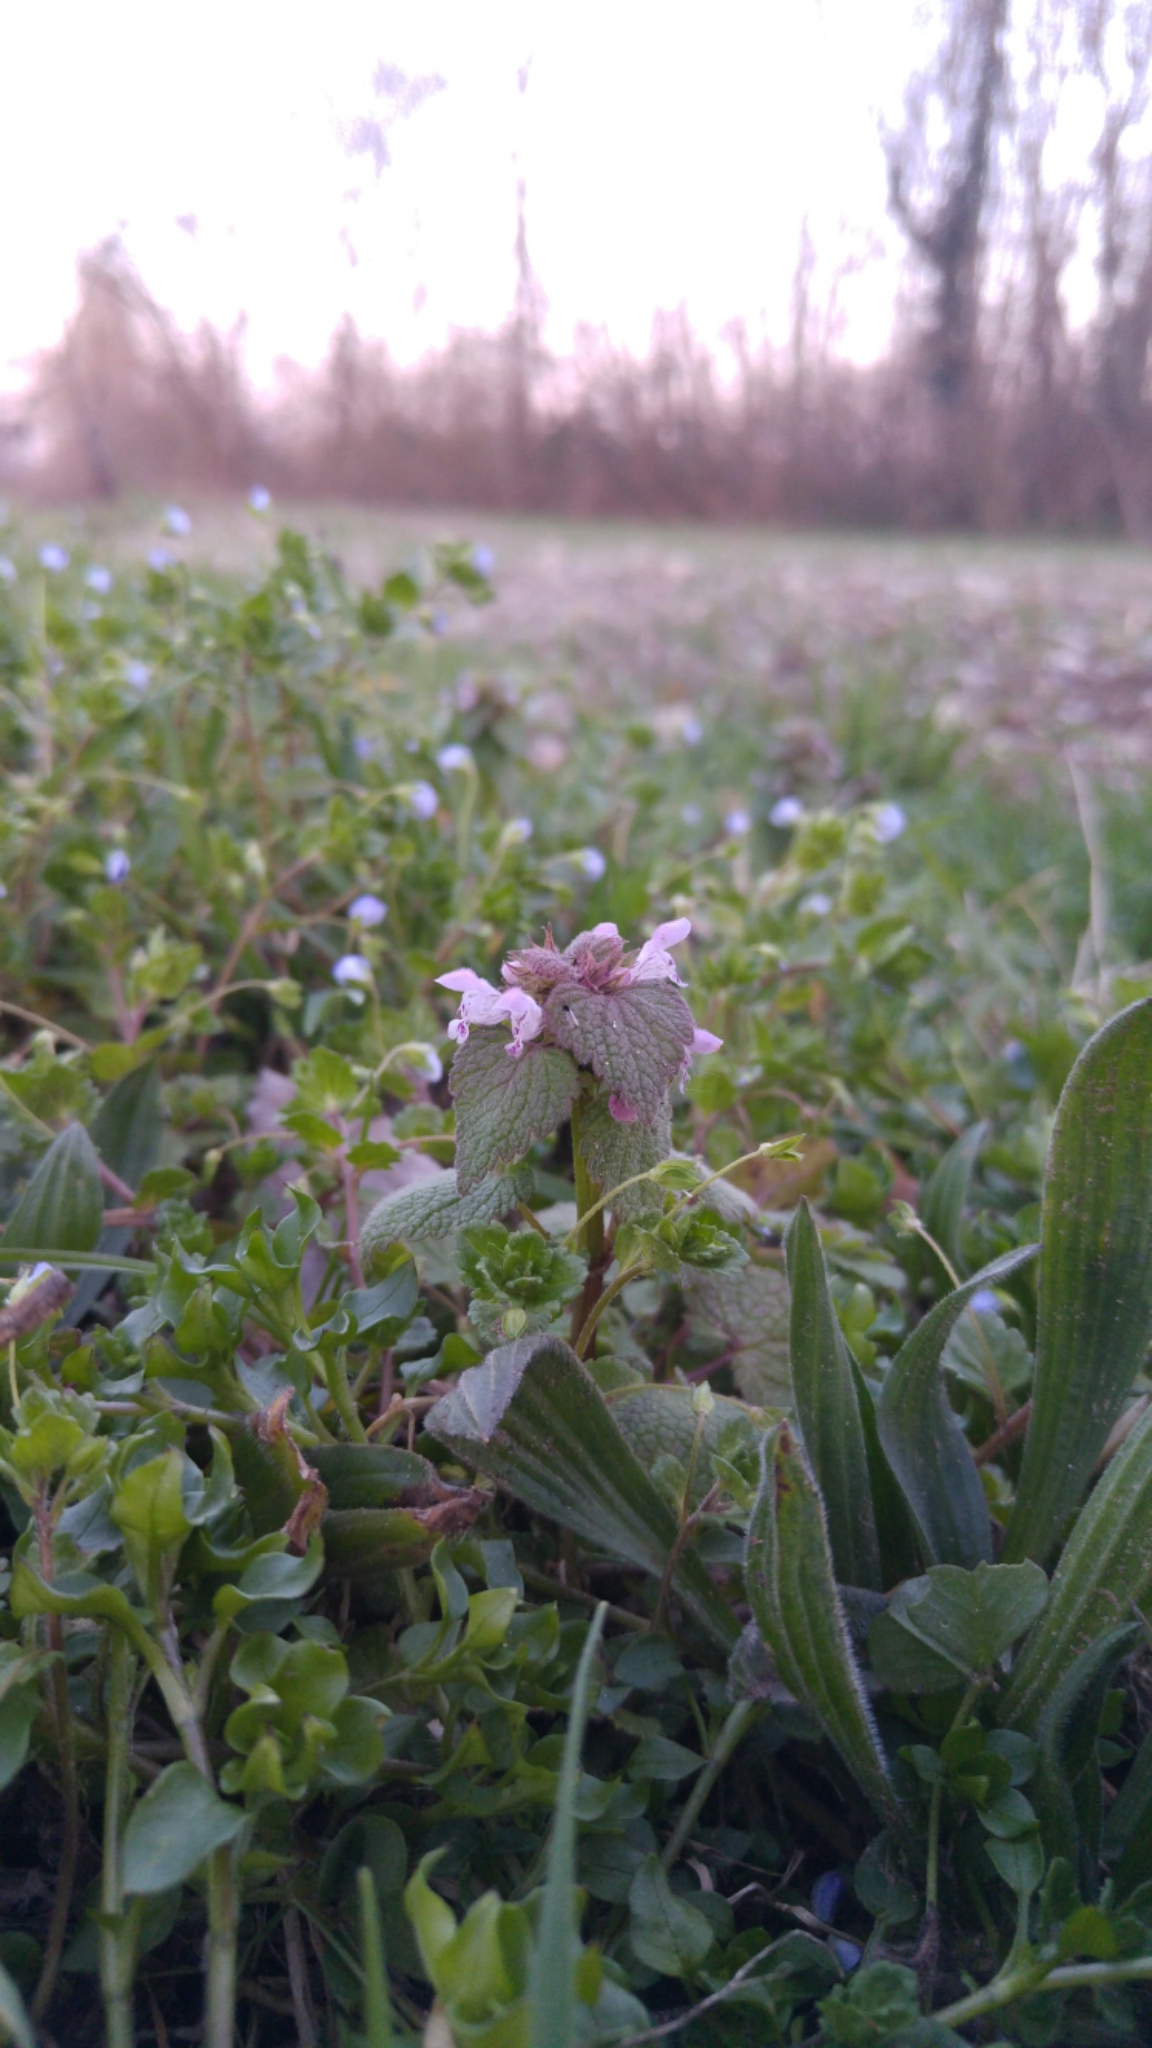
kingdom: Plantae
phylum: Tracheophyta
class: Magnoliopsida
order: Lamiales
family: Lamiaceae
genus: Lamium
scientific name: Lamium purpureum
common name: Red dead-nettle
